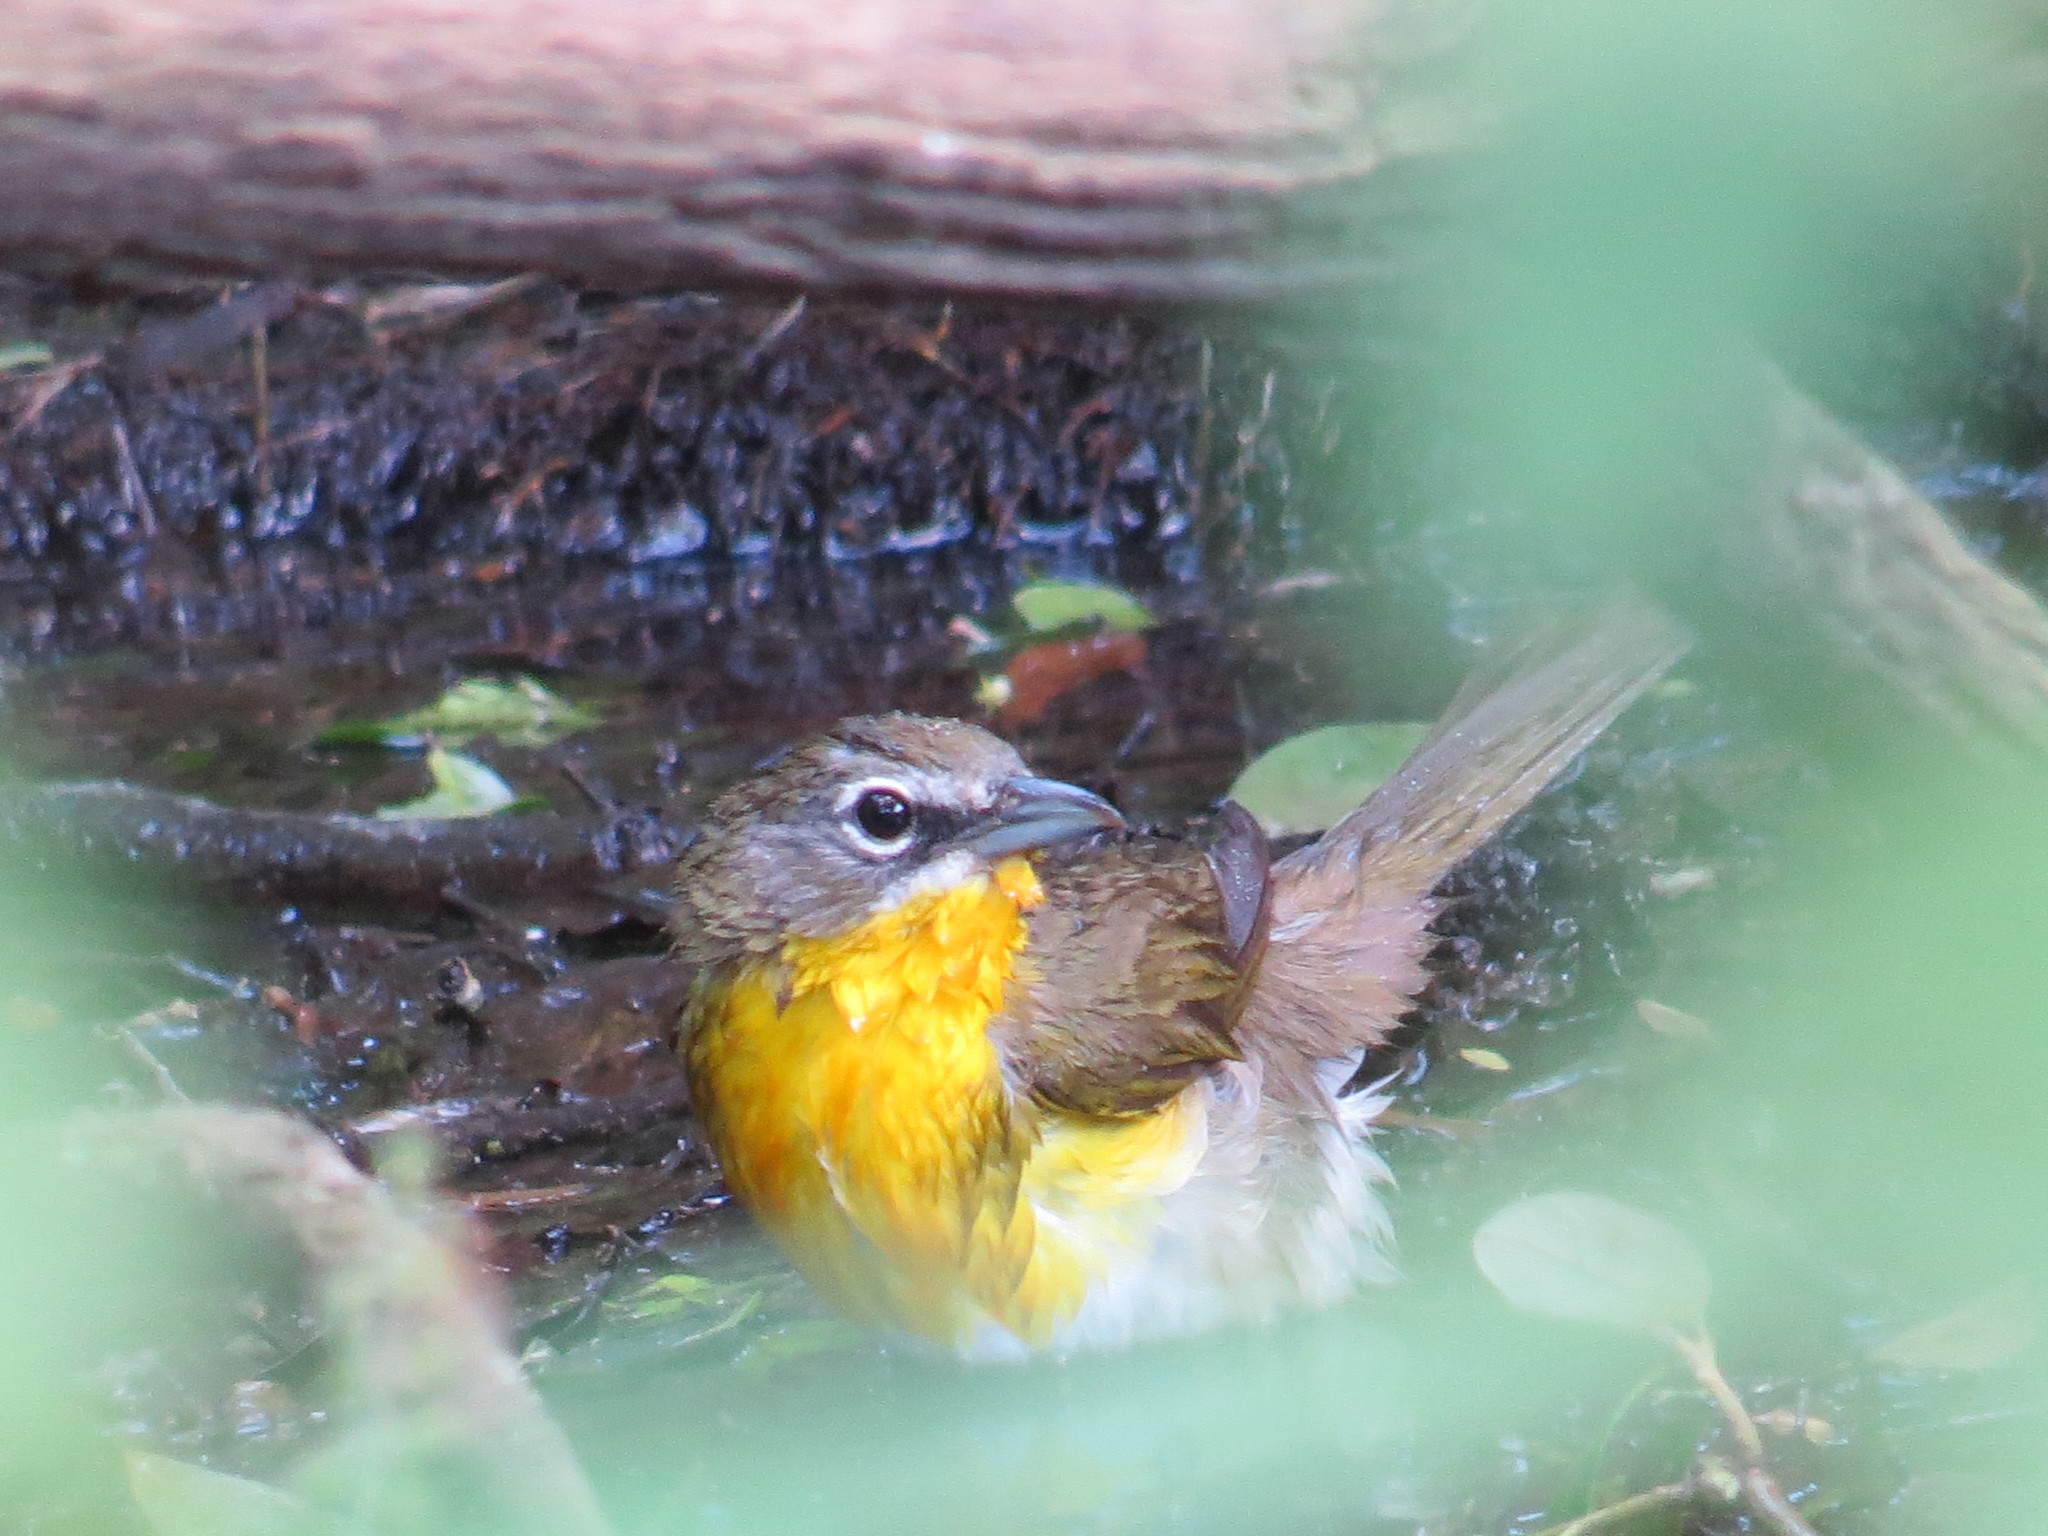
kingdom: Animalia
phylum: Chordata
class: Aves
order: Passeriformes
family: Parulidae
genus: Icteria
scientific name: Icteria virens
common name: Yellow-breasted chat
